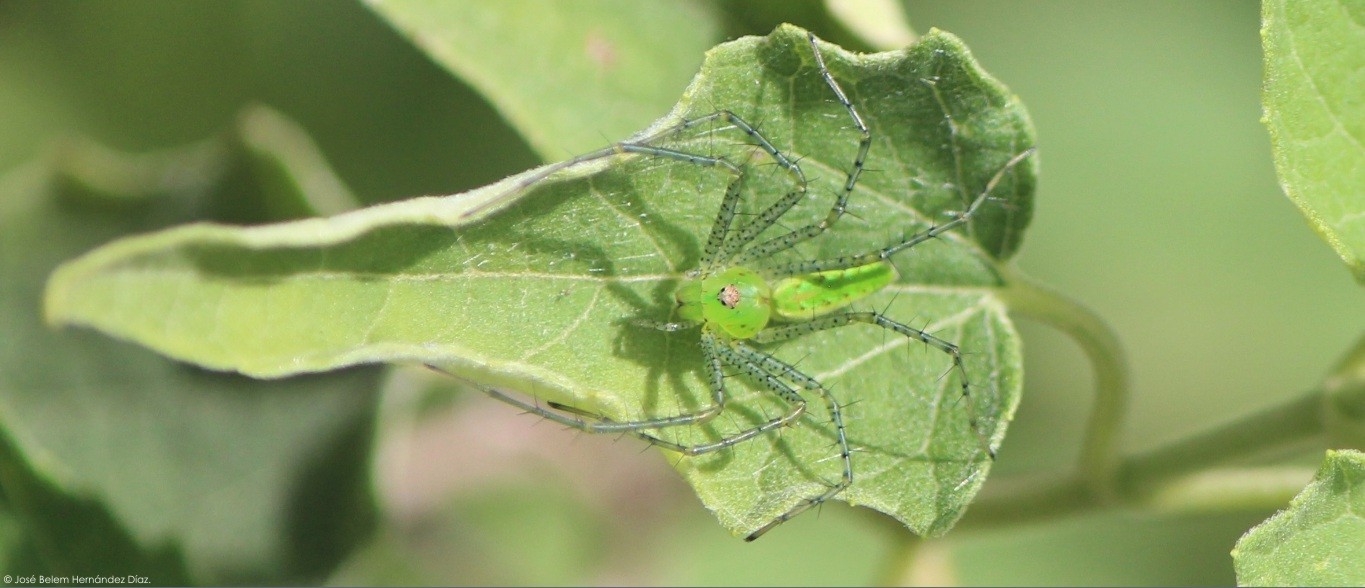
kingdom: Animalia
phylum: Arthropoda
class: Arachnida
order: Araneae
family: Oxyopidae
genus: Peucetia
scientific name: Peucetia viridans
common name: Lynx spiders
